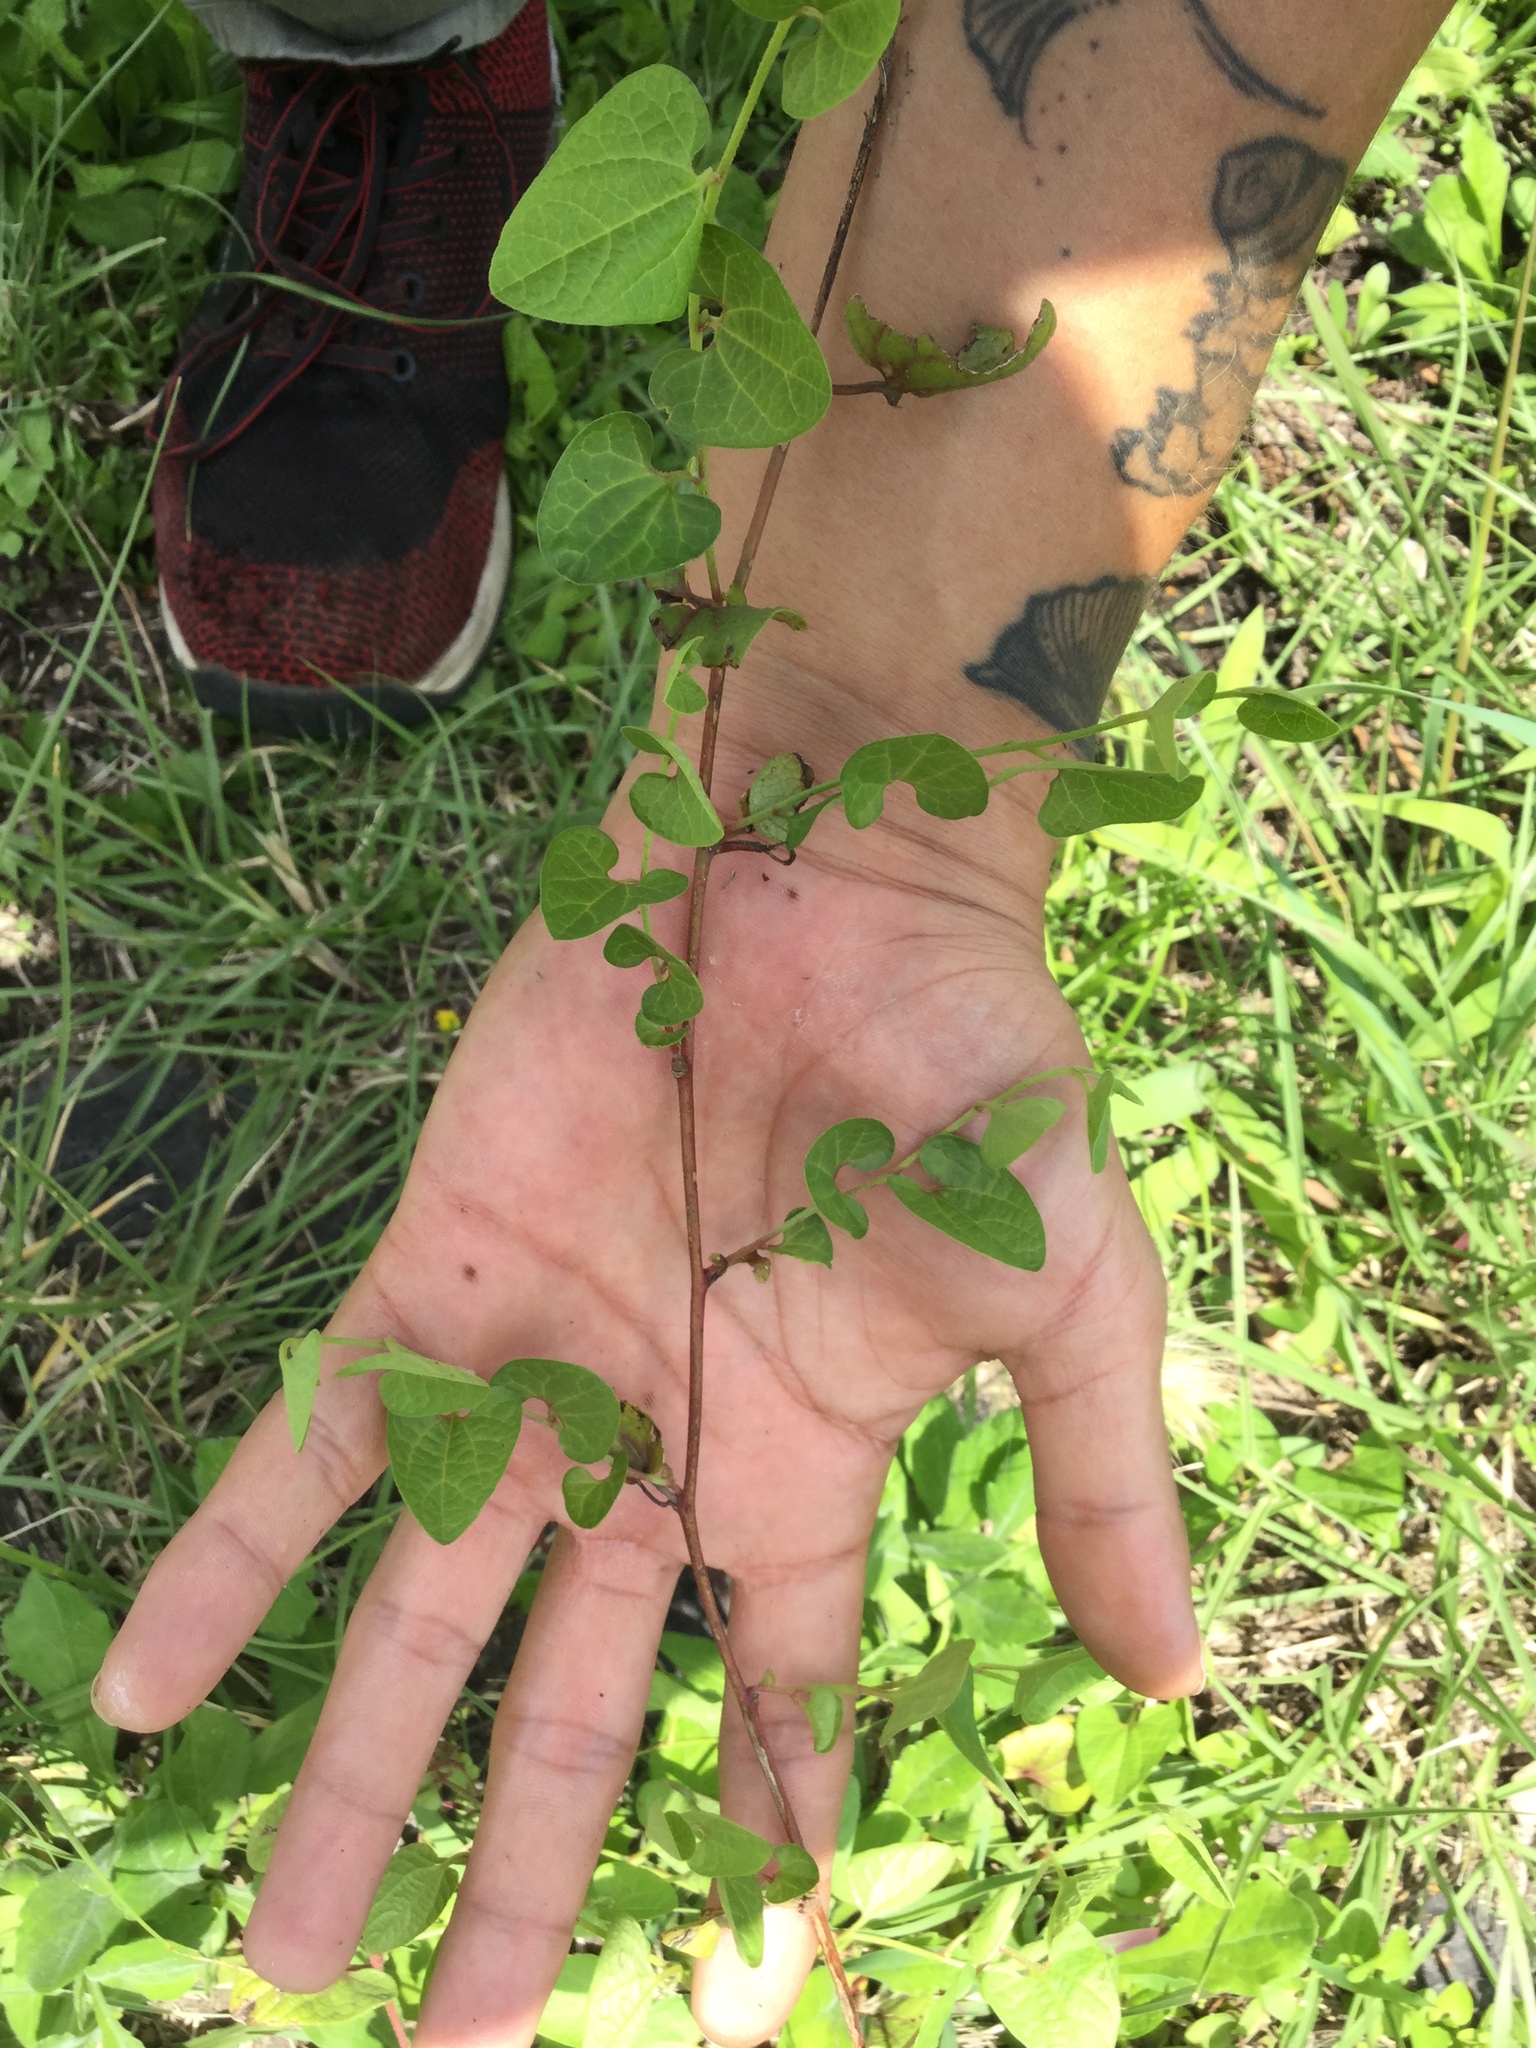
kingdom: Plantae
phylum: Tracheophyta
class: Magnoliopsida
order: Piperales
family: Aristolochiaceae
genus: Aristolochia
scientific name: Aristolochia brevipes
